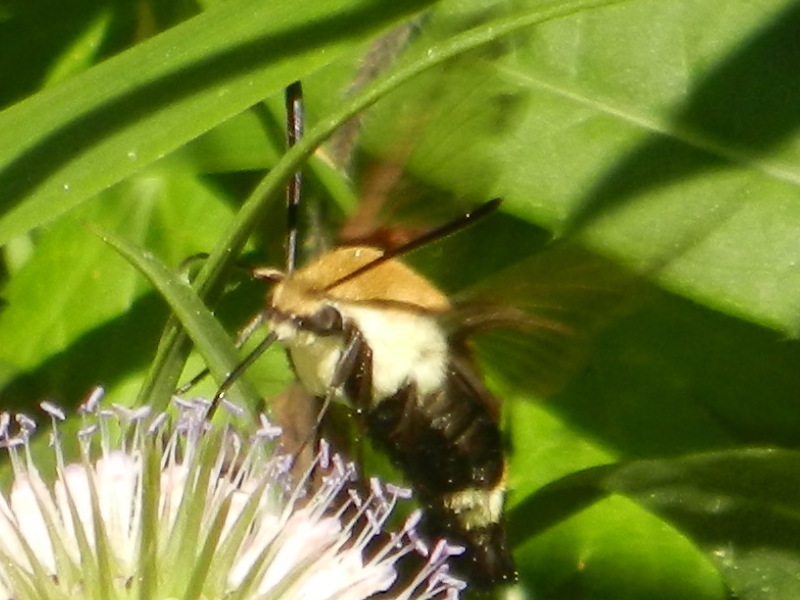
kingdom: Animalia
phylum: Arthropoda
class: Insecta
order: Lepidoptera
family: Sphingidae
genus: Hemaris
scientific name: Hemaris diffinis
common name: Bumblebee moth
